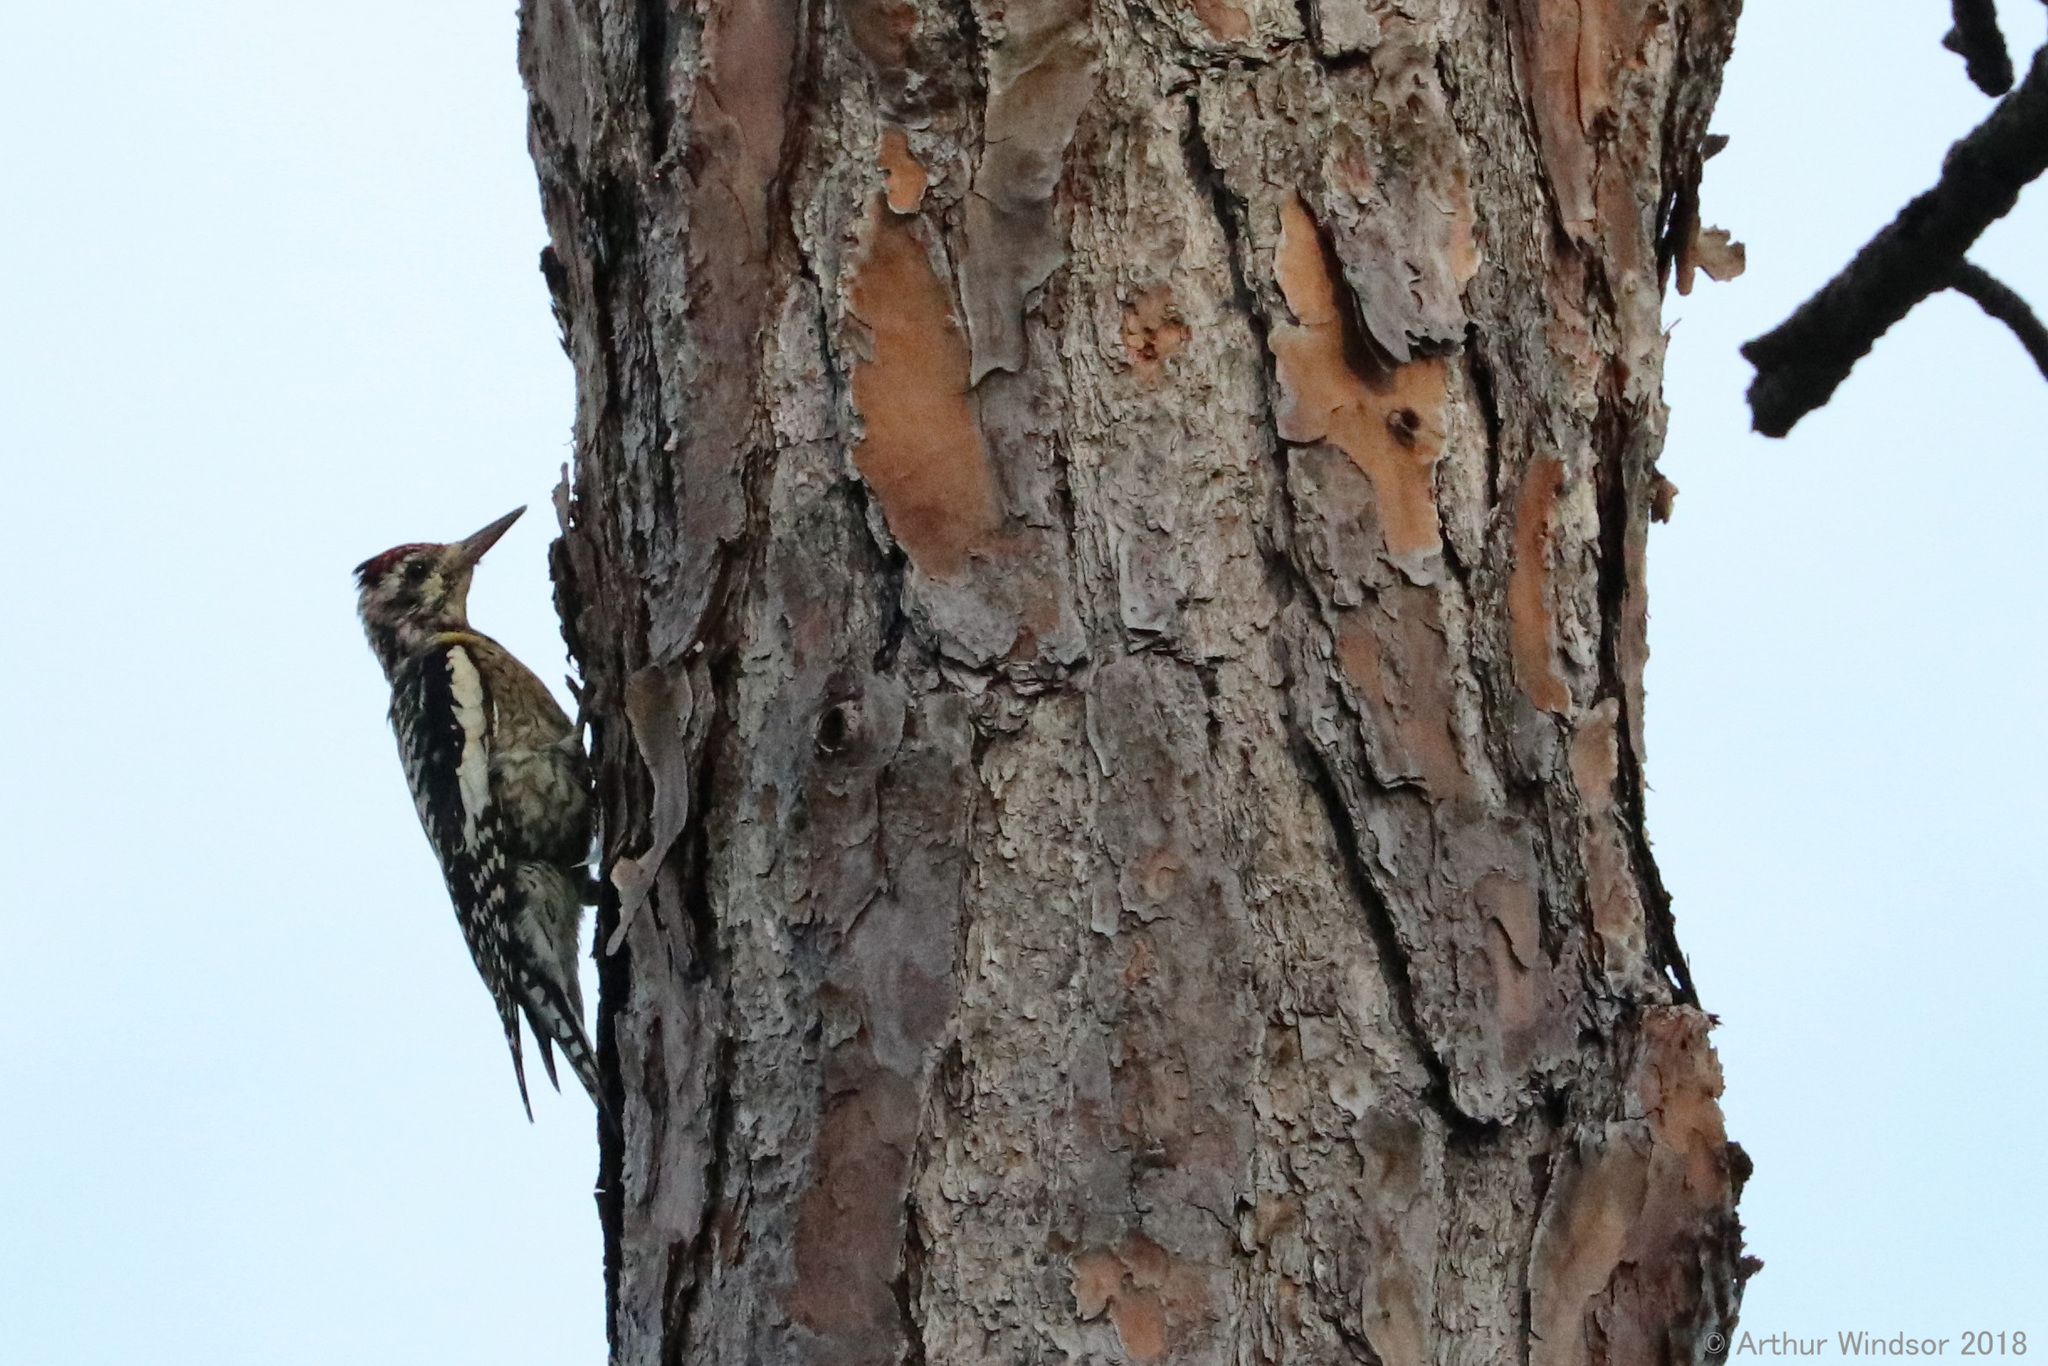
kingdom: Animalia
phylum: Chordata
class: Aves
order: Piciformes
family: Picidae
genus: Sphyrapicus
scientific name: Sphyrapicus varius
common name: Yellow-bellied sapsucker
